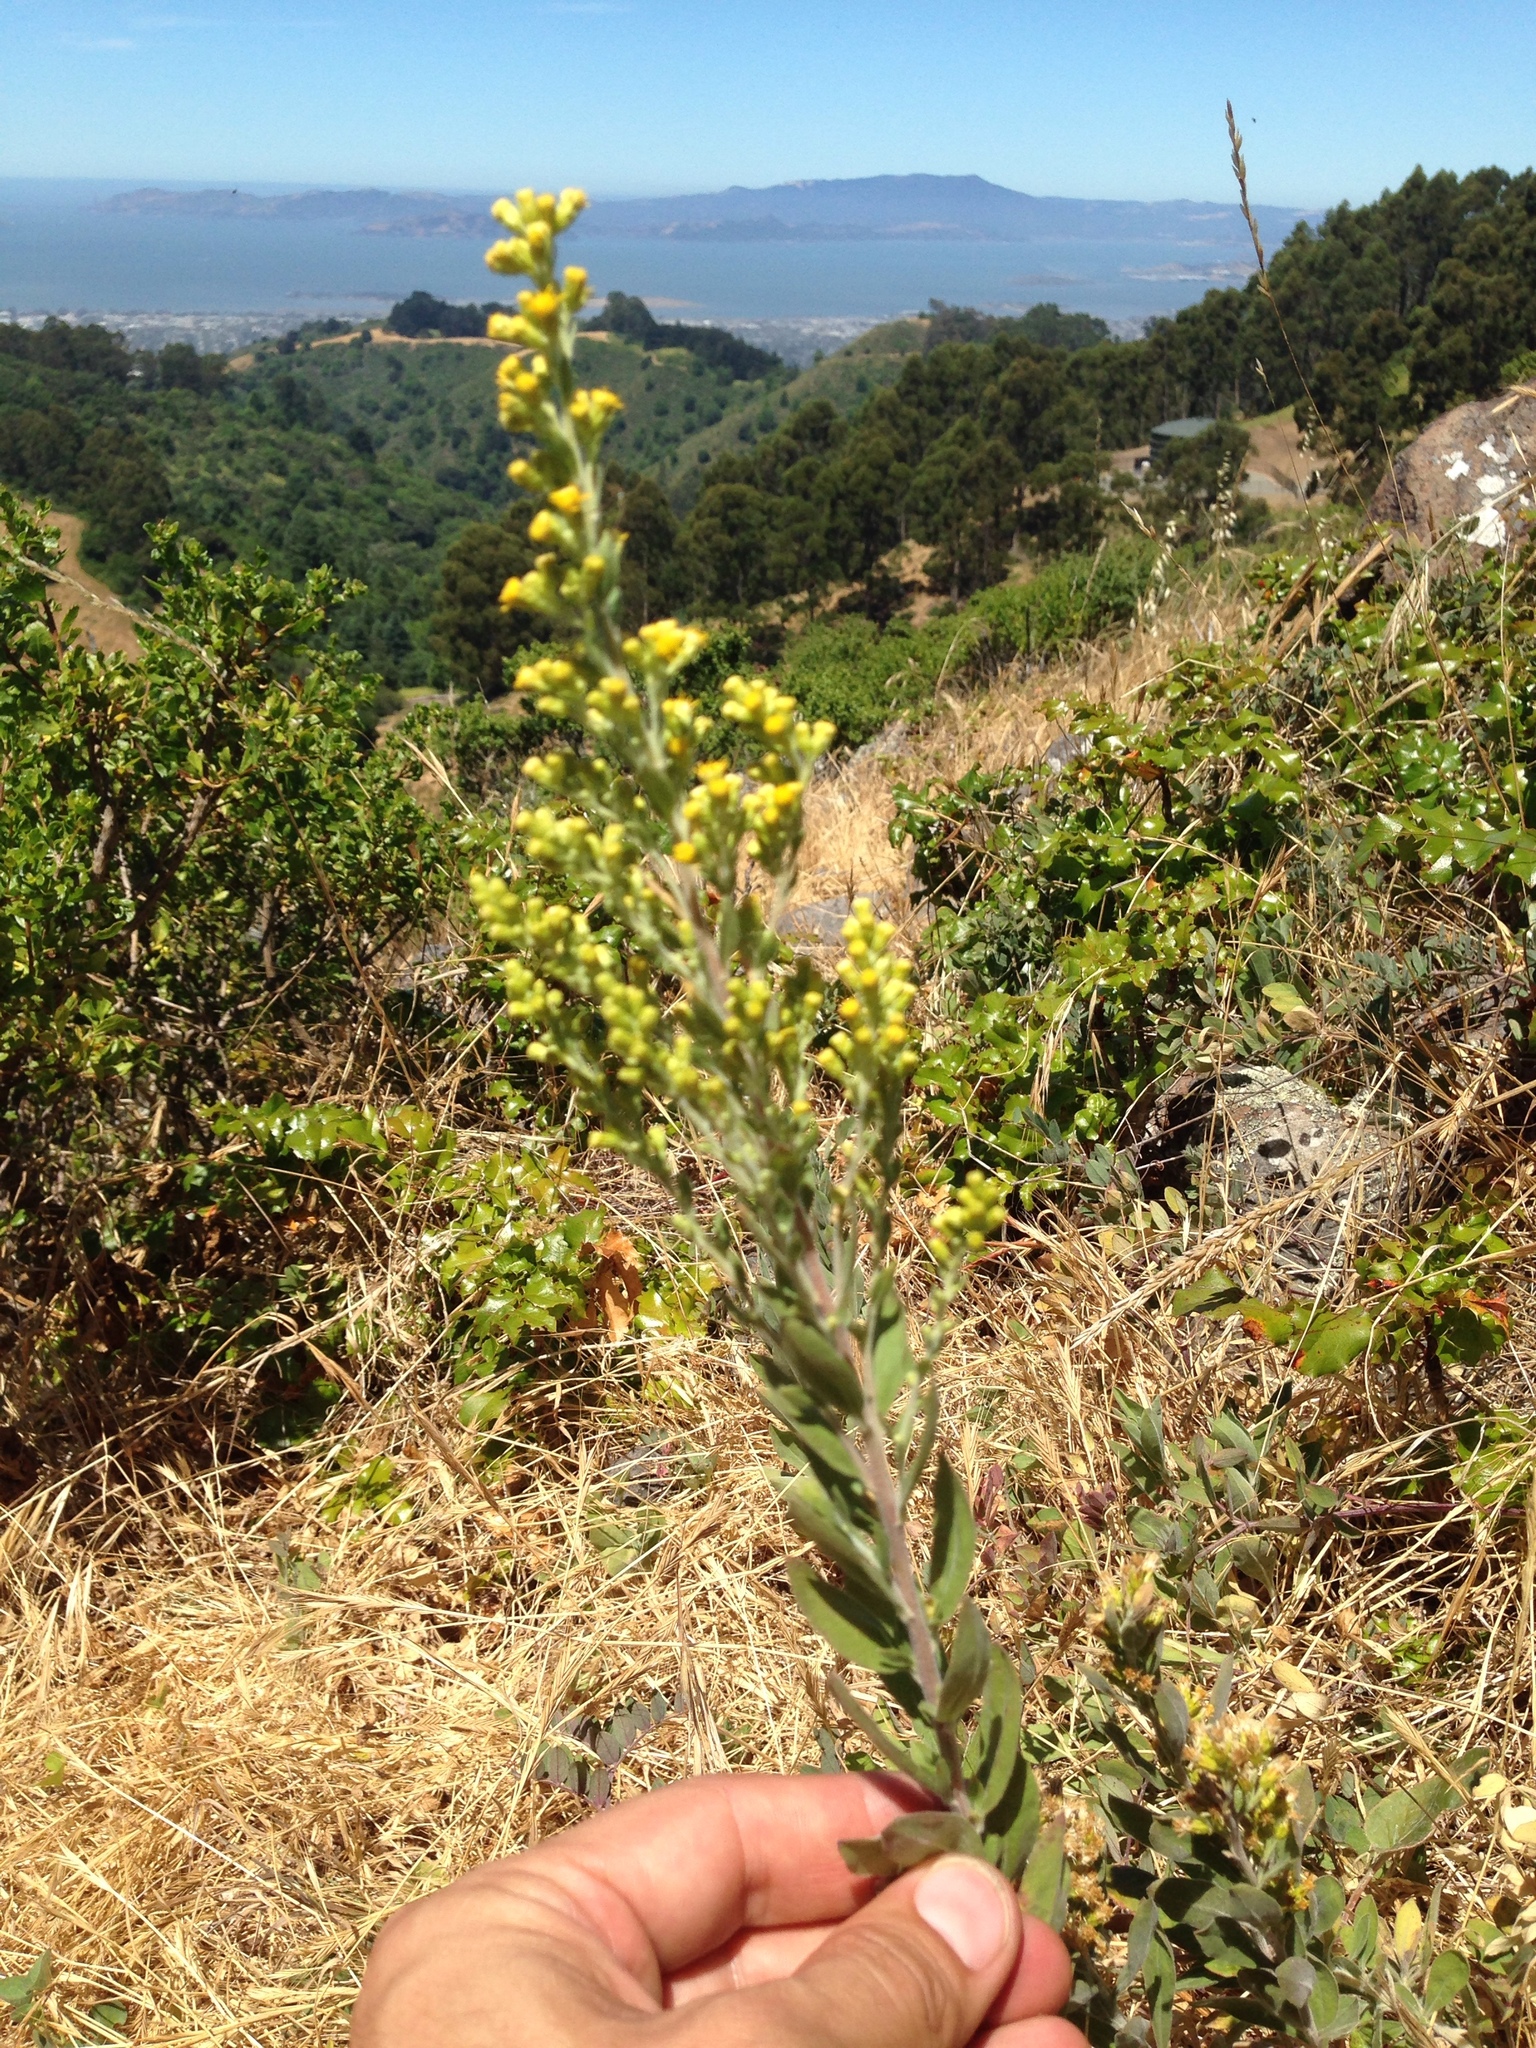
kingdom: Plantae
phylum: Tracheophyta
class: Magnoliopsida
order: Asterales
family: Asteraceae
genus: Solidago
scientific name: Solidago velutina
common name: Three-nerve goldenrod
